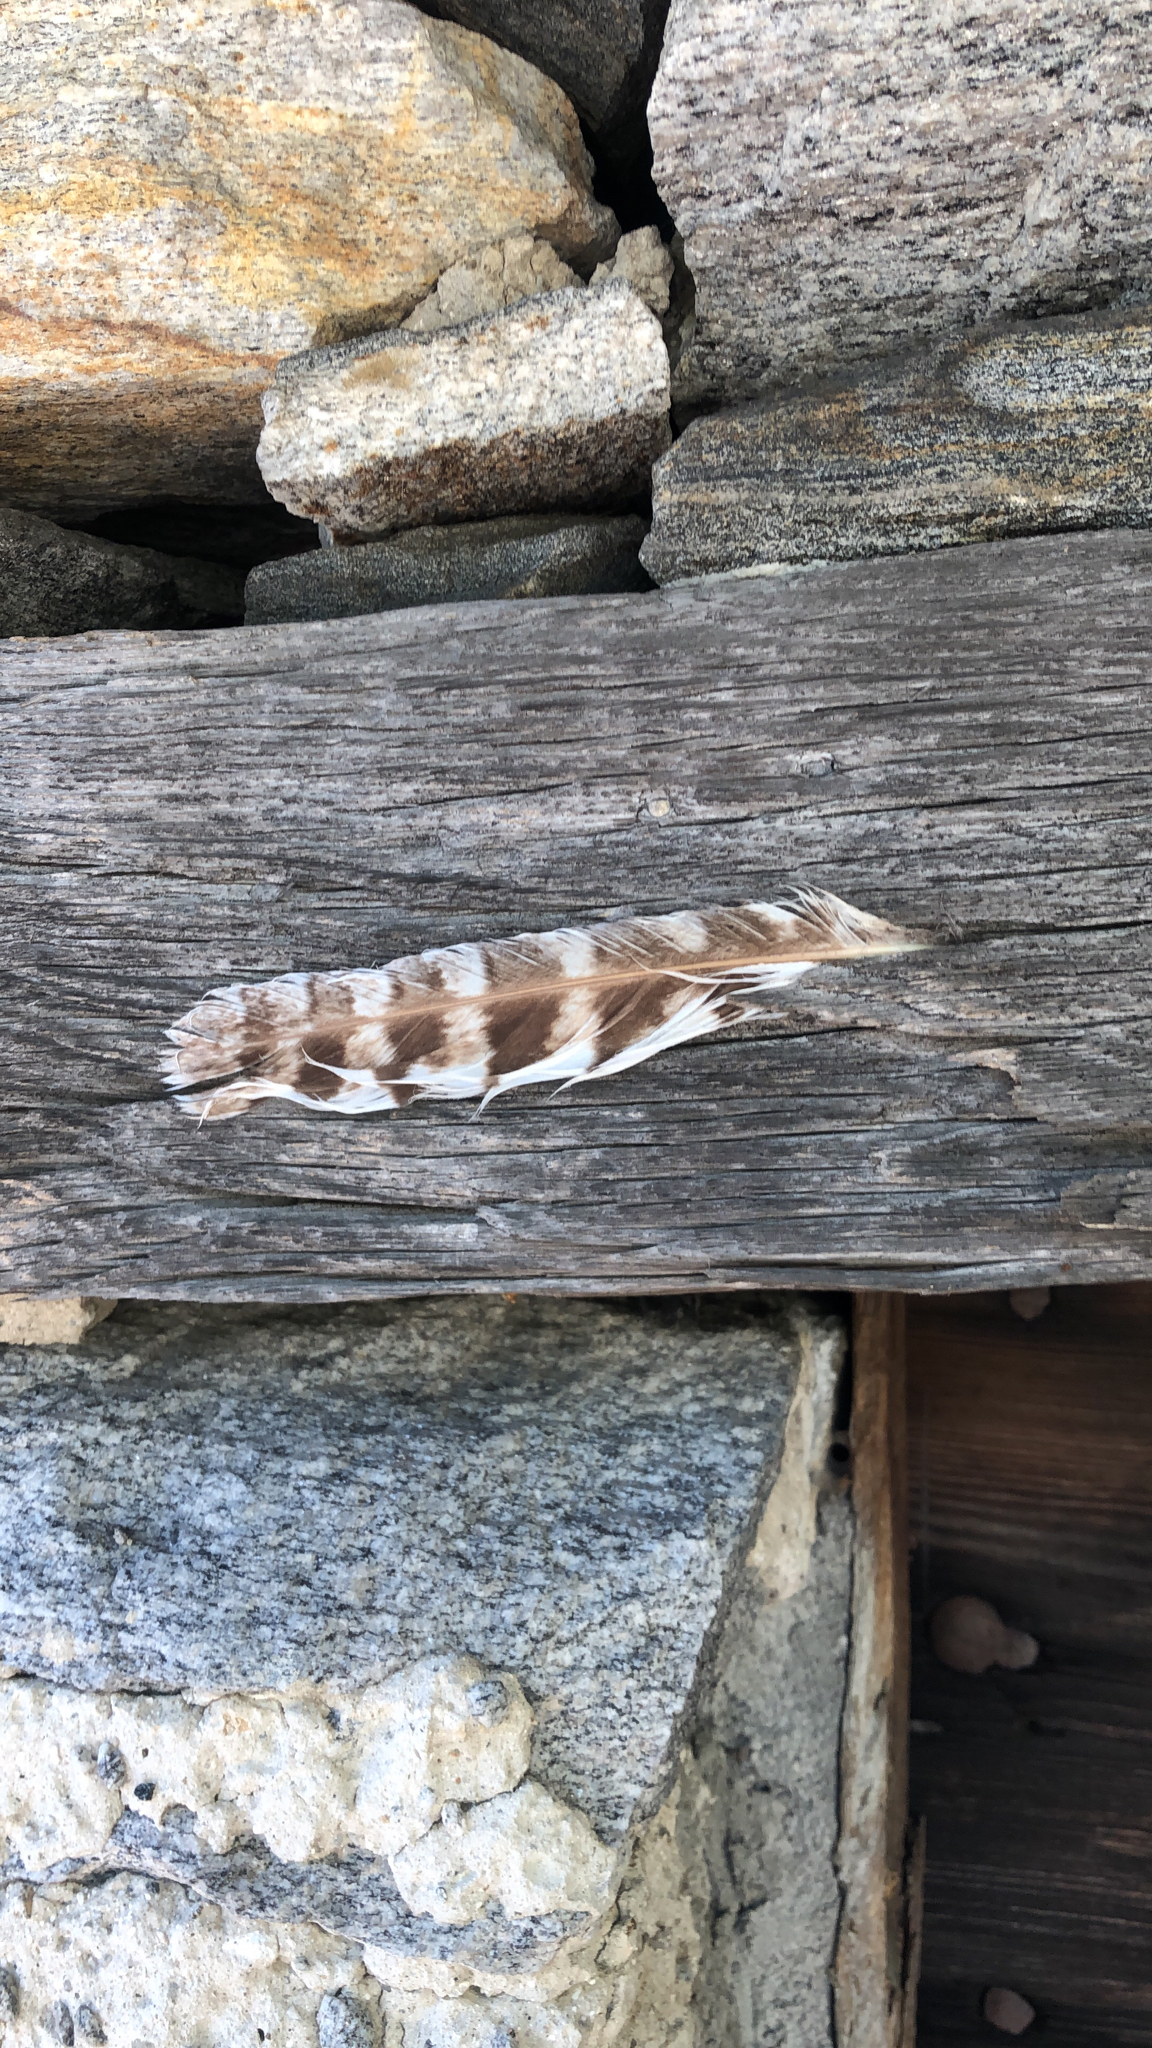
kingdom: Animalia
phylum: Chordata
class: Aves
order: Strigiformes
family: Strigidae
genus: Strix
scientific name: Strix aluco
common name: Tawny owl
